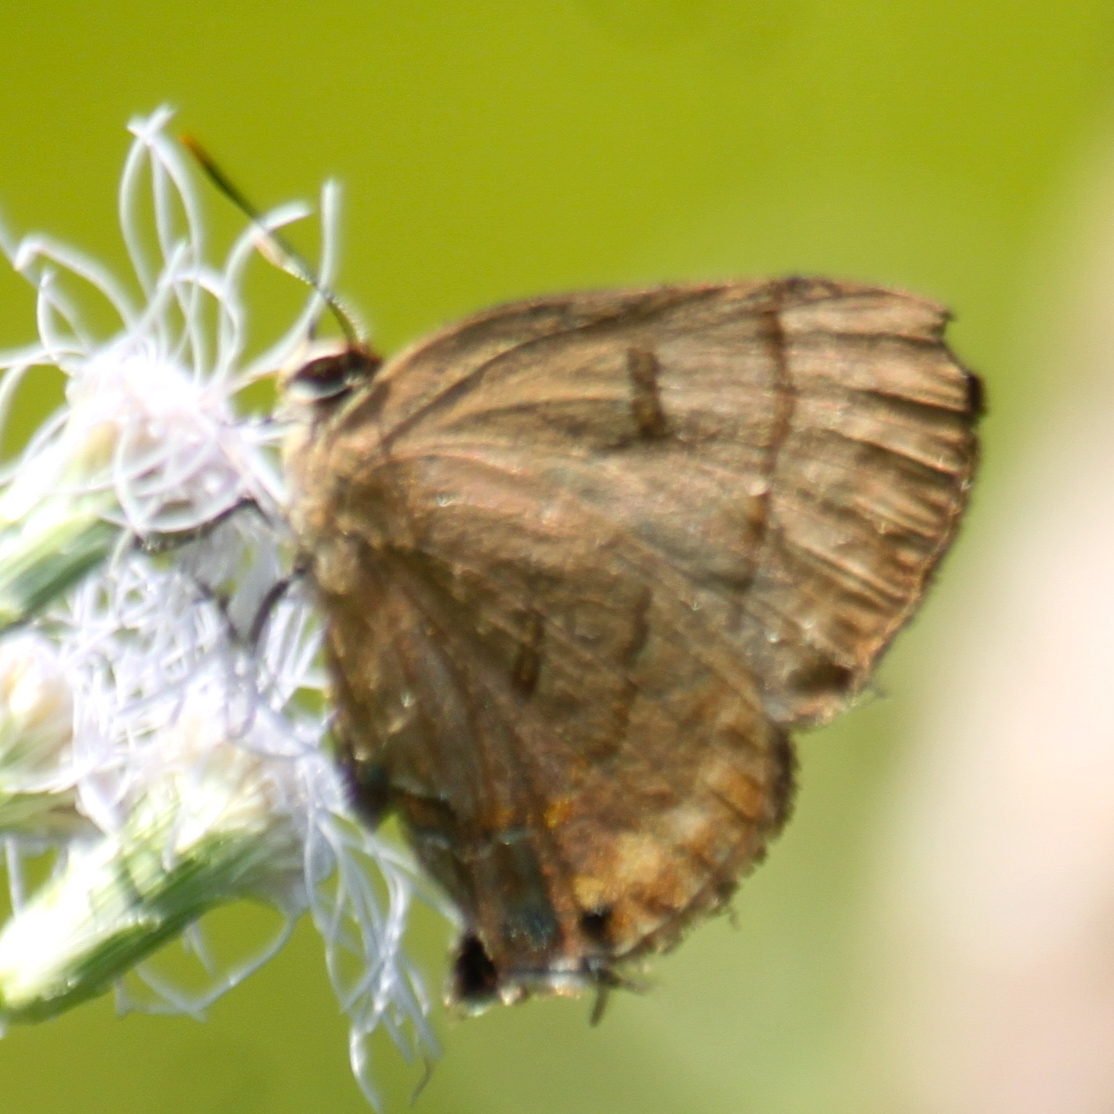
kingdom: Animalia
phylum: Arthropoda
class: Insecta
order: Lepidoptera
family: Lycaenidae
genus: Rapala
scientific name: Rapala pheretima
